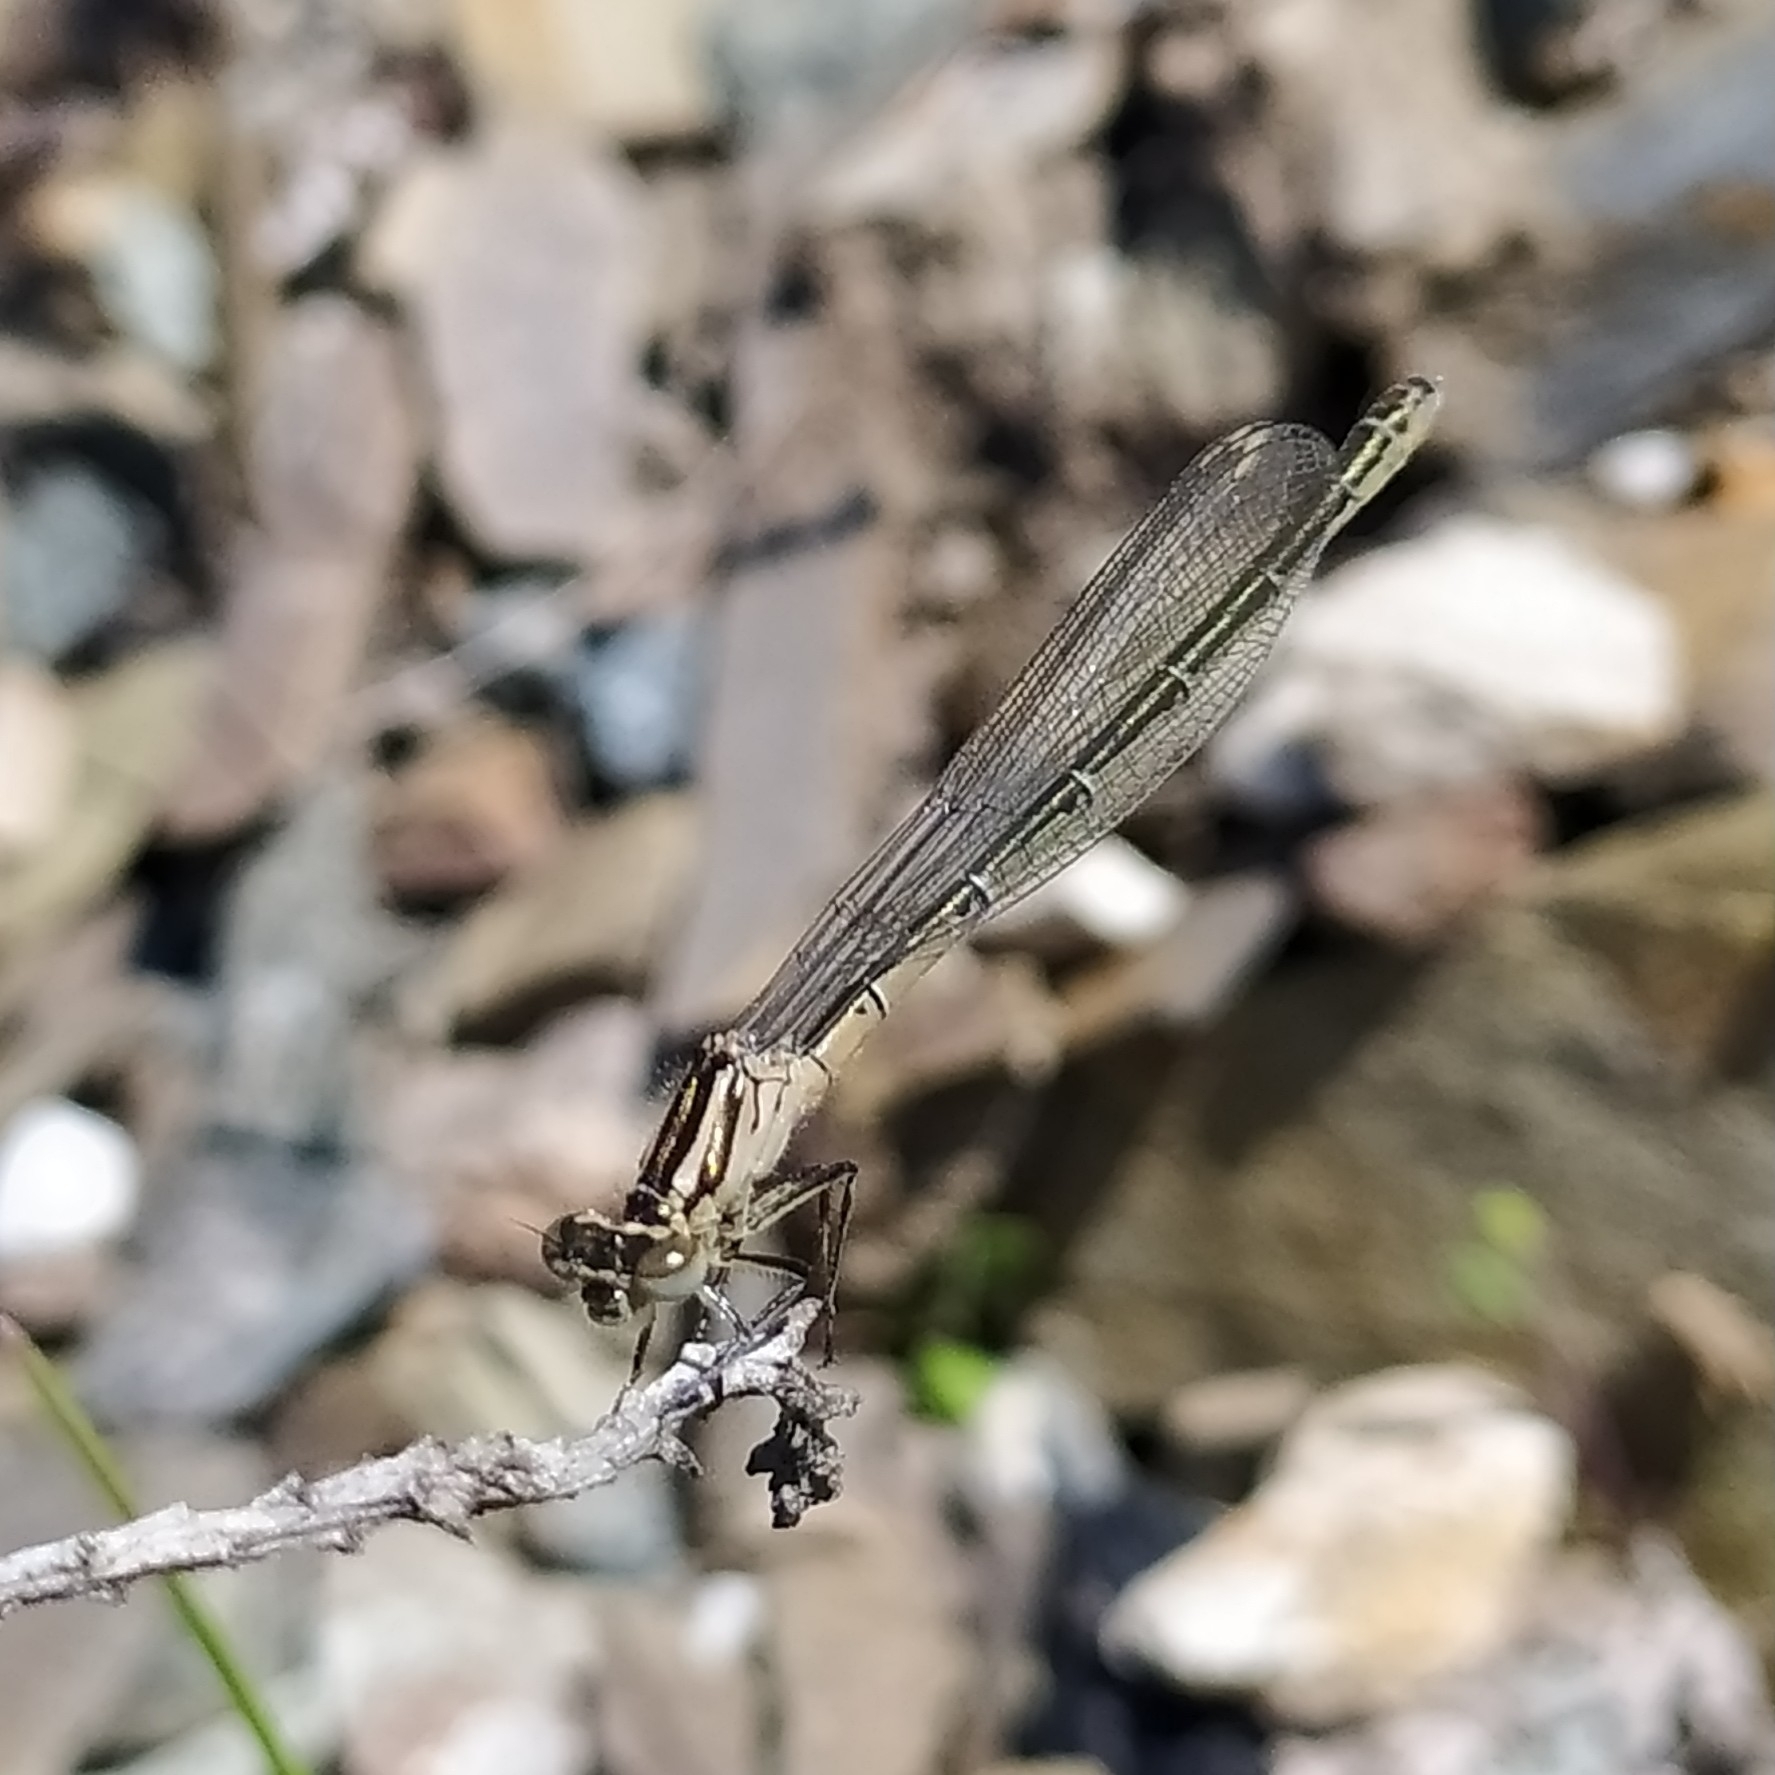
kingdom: Animalia
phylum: Arthropoda
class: Insecta
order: Odonata
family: Coenagrionidae
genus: Coenagrion
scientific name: Coenagrion hastulatum
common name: Spearhead bluet
